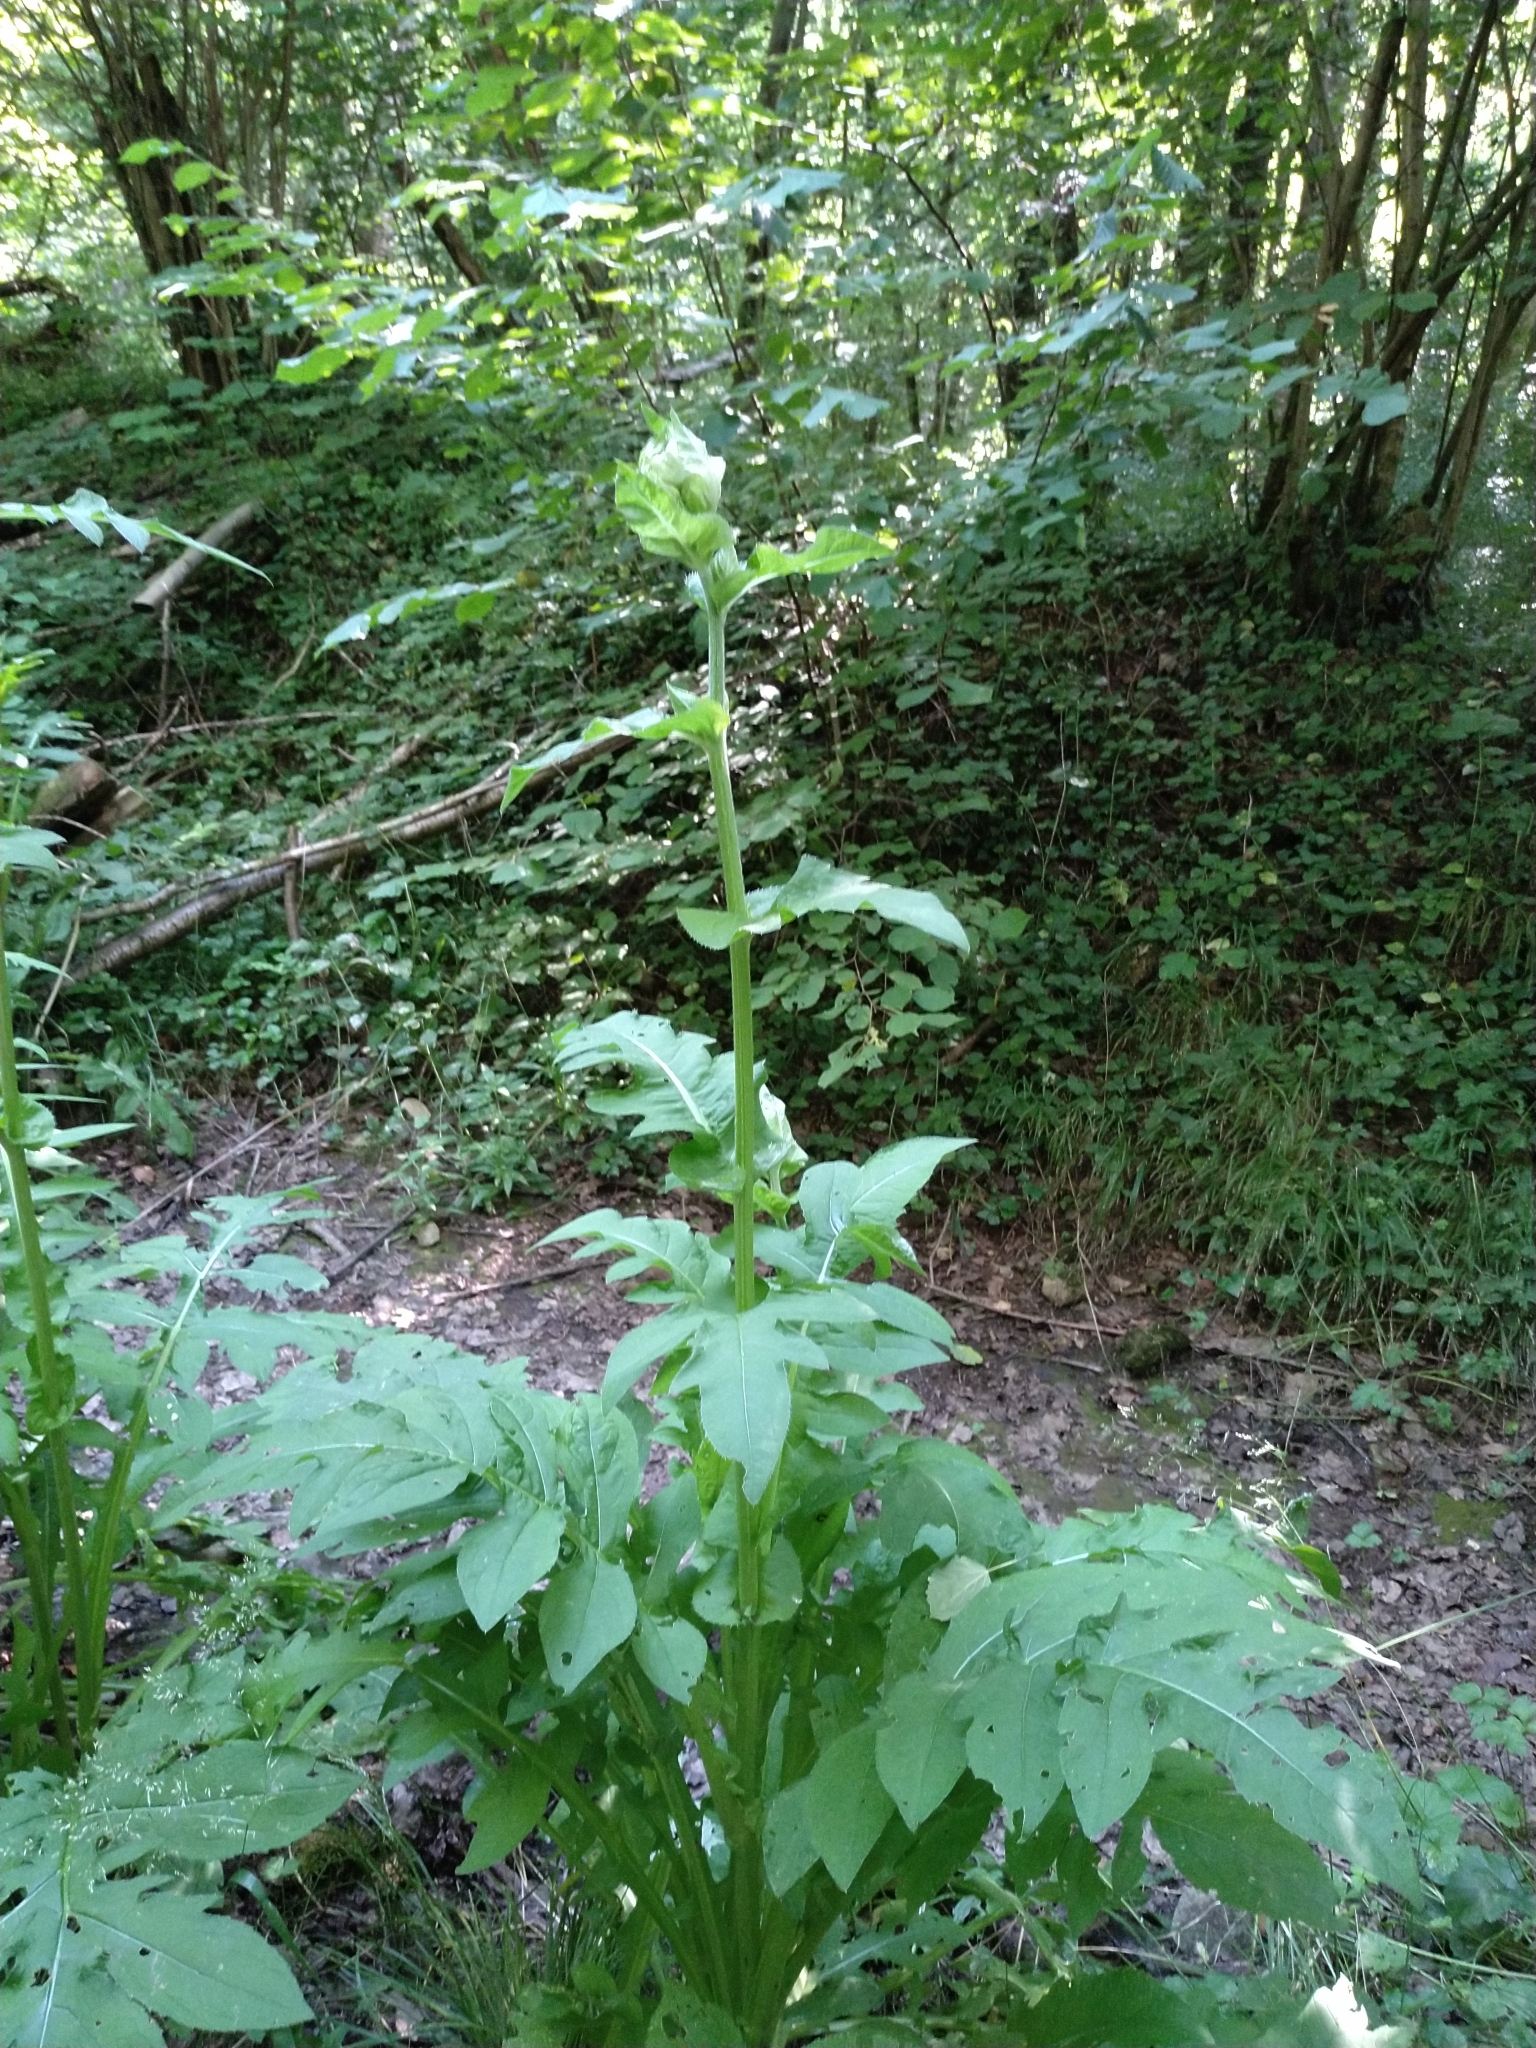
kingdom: Plantae
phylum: Tracheophyta
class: Magnoliopsida
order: Asterales
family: Asteraceae
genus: Cirsium
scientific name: Cirsium oleraceum
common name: Cabbage thistle
